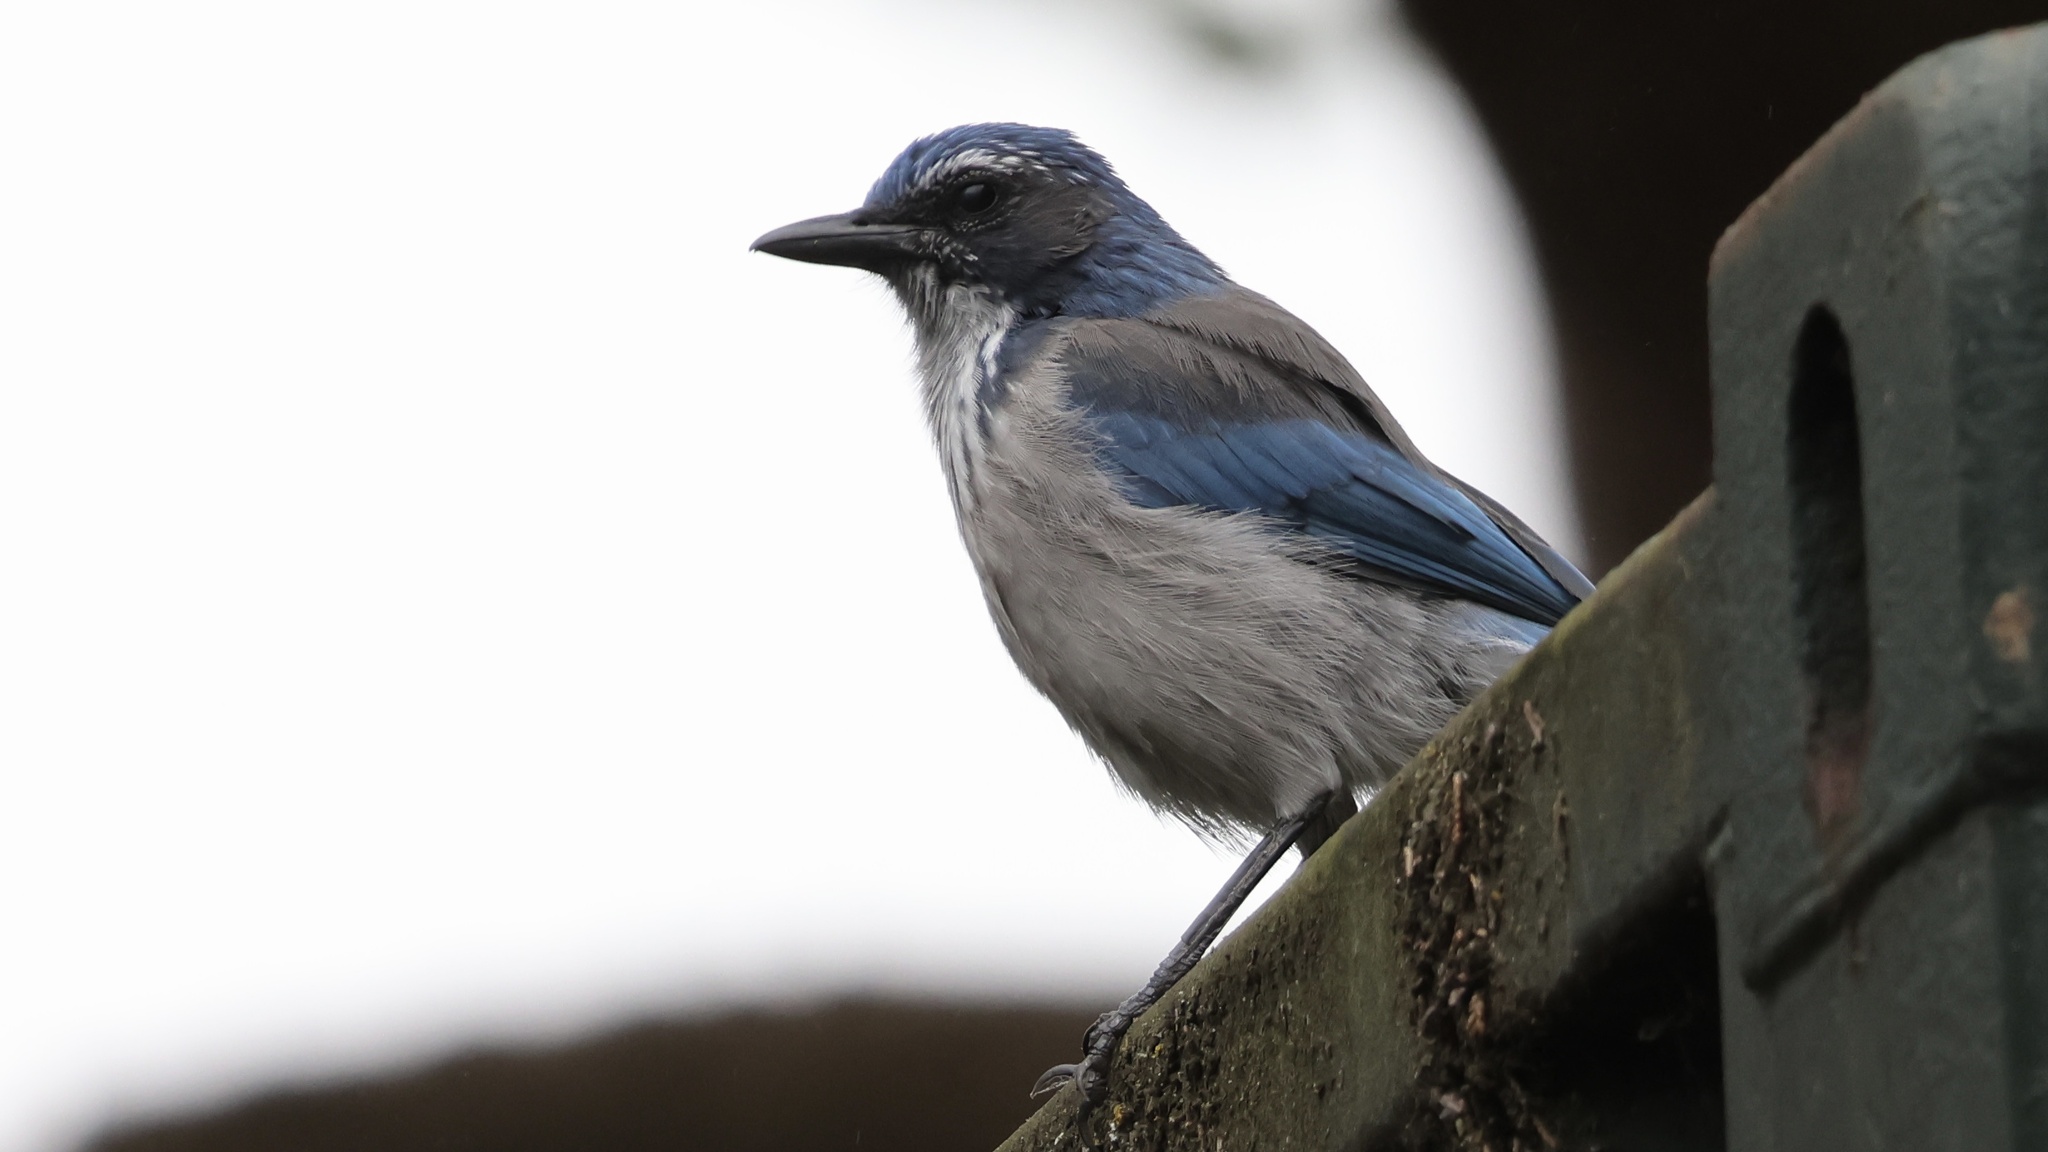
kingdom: Animalia
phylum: Chordata
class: Aves
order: Passeriformes
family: Corvidae
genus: Aphelocoma
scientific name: Aphelocoma californica
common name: California scrub-jay
